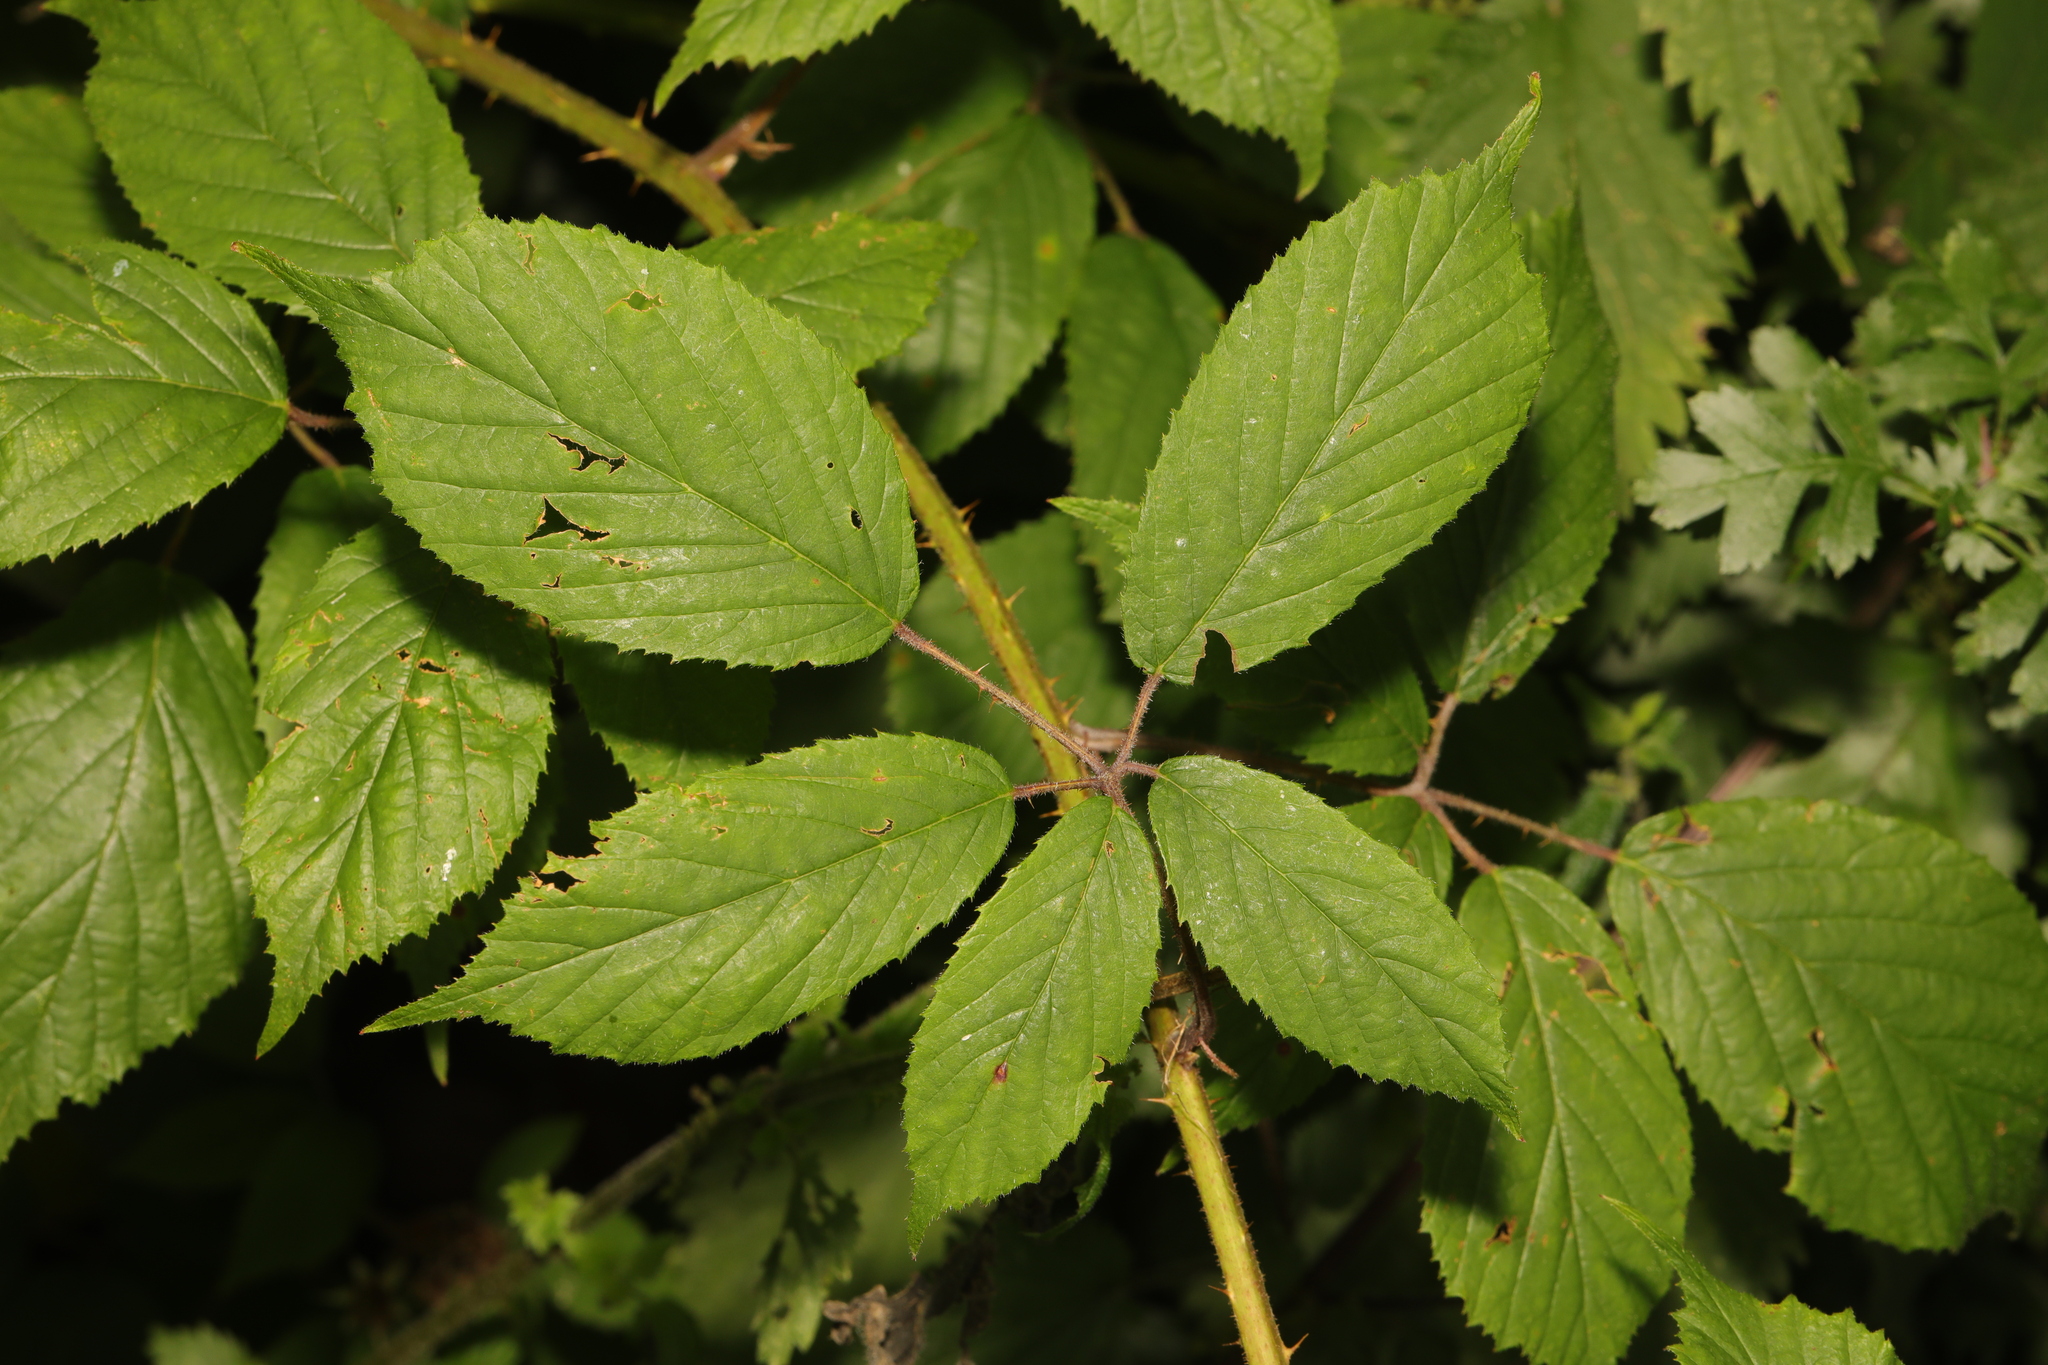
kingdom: Plantae
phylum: Tracheophyta
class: Magnoliopsida
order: Rosales
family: Rosaceae
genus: Rubus
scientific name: Rubus rufescens
